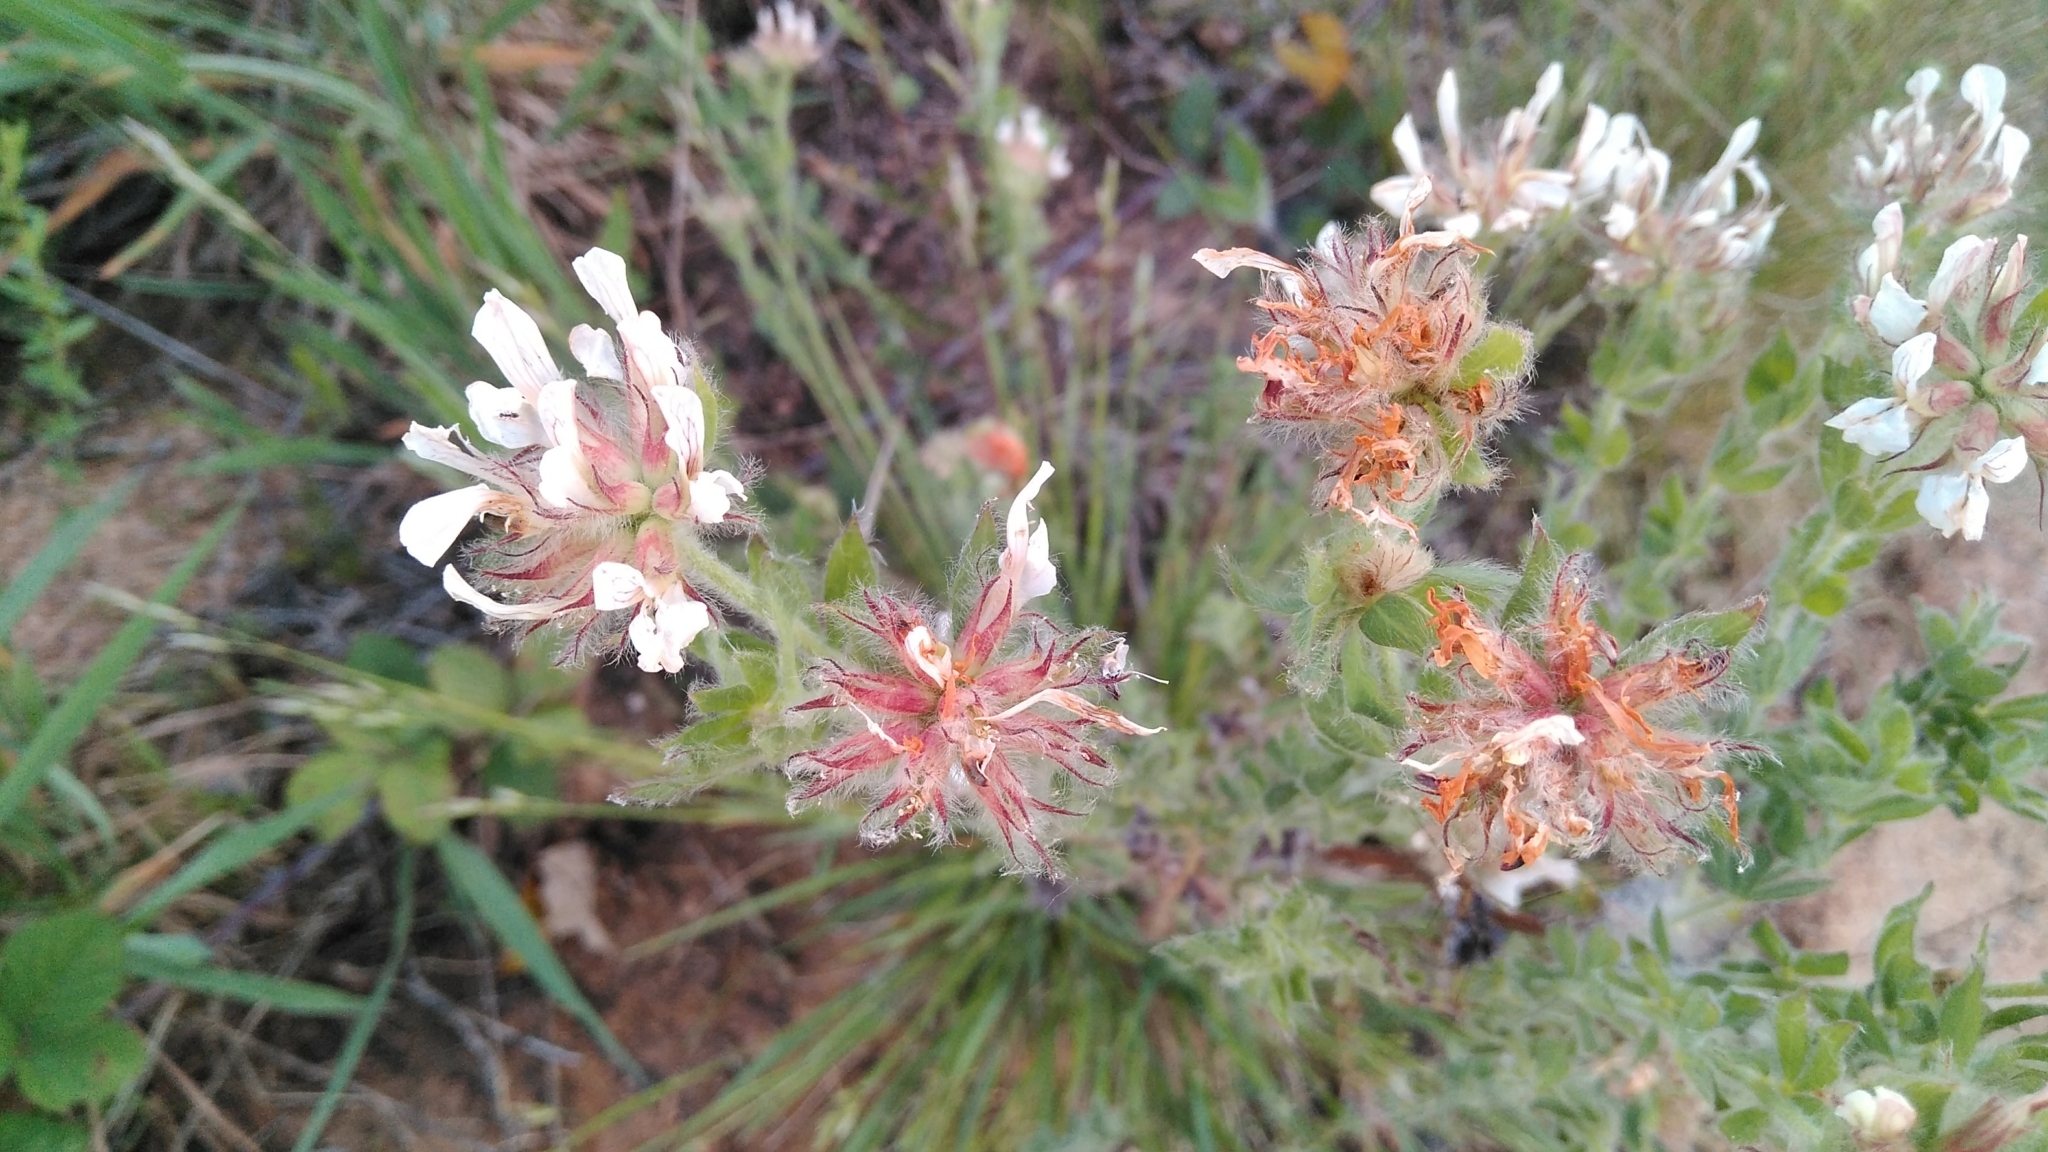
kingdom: Plantae
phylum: Tracheophyta
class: Magnoliopsida
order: Fabales
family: Fabaceae
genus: Lotus
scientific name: Lotus hirsutus
